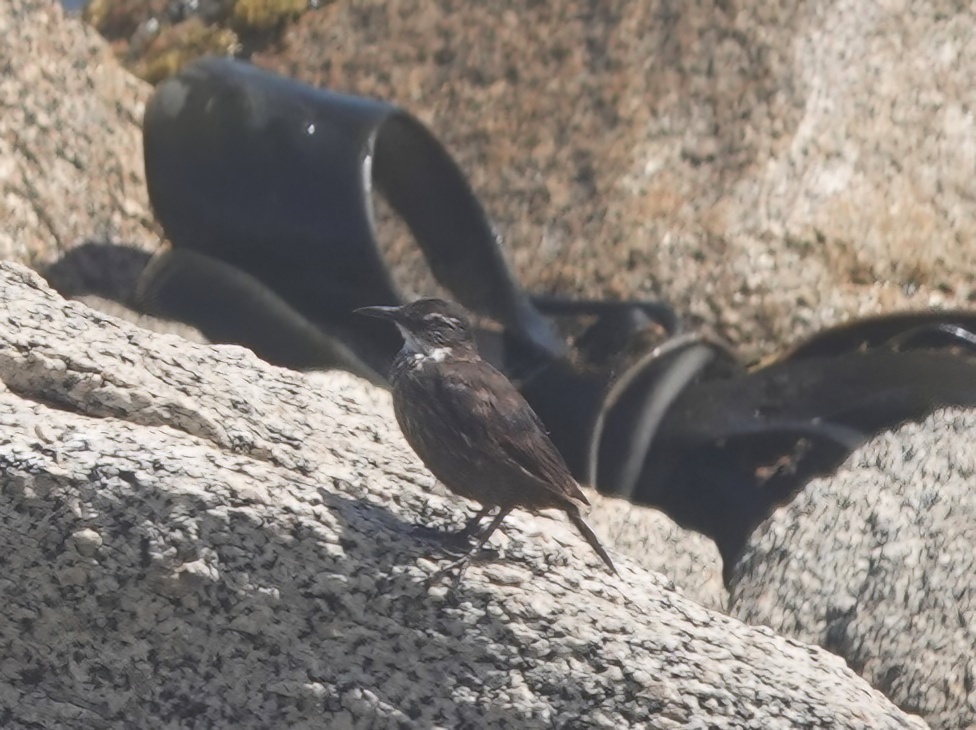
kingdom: Animalia
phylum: Chordata
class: Aves
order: Passeriformes
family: Furnariidae
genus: Cinclodes
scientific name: Cinclodes nigrofumosus
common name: Chilean seaside cinclodes
